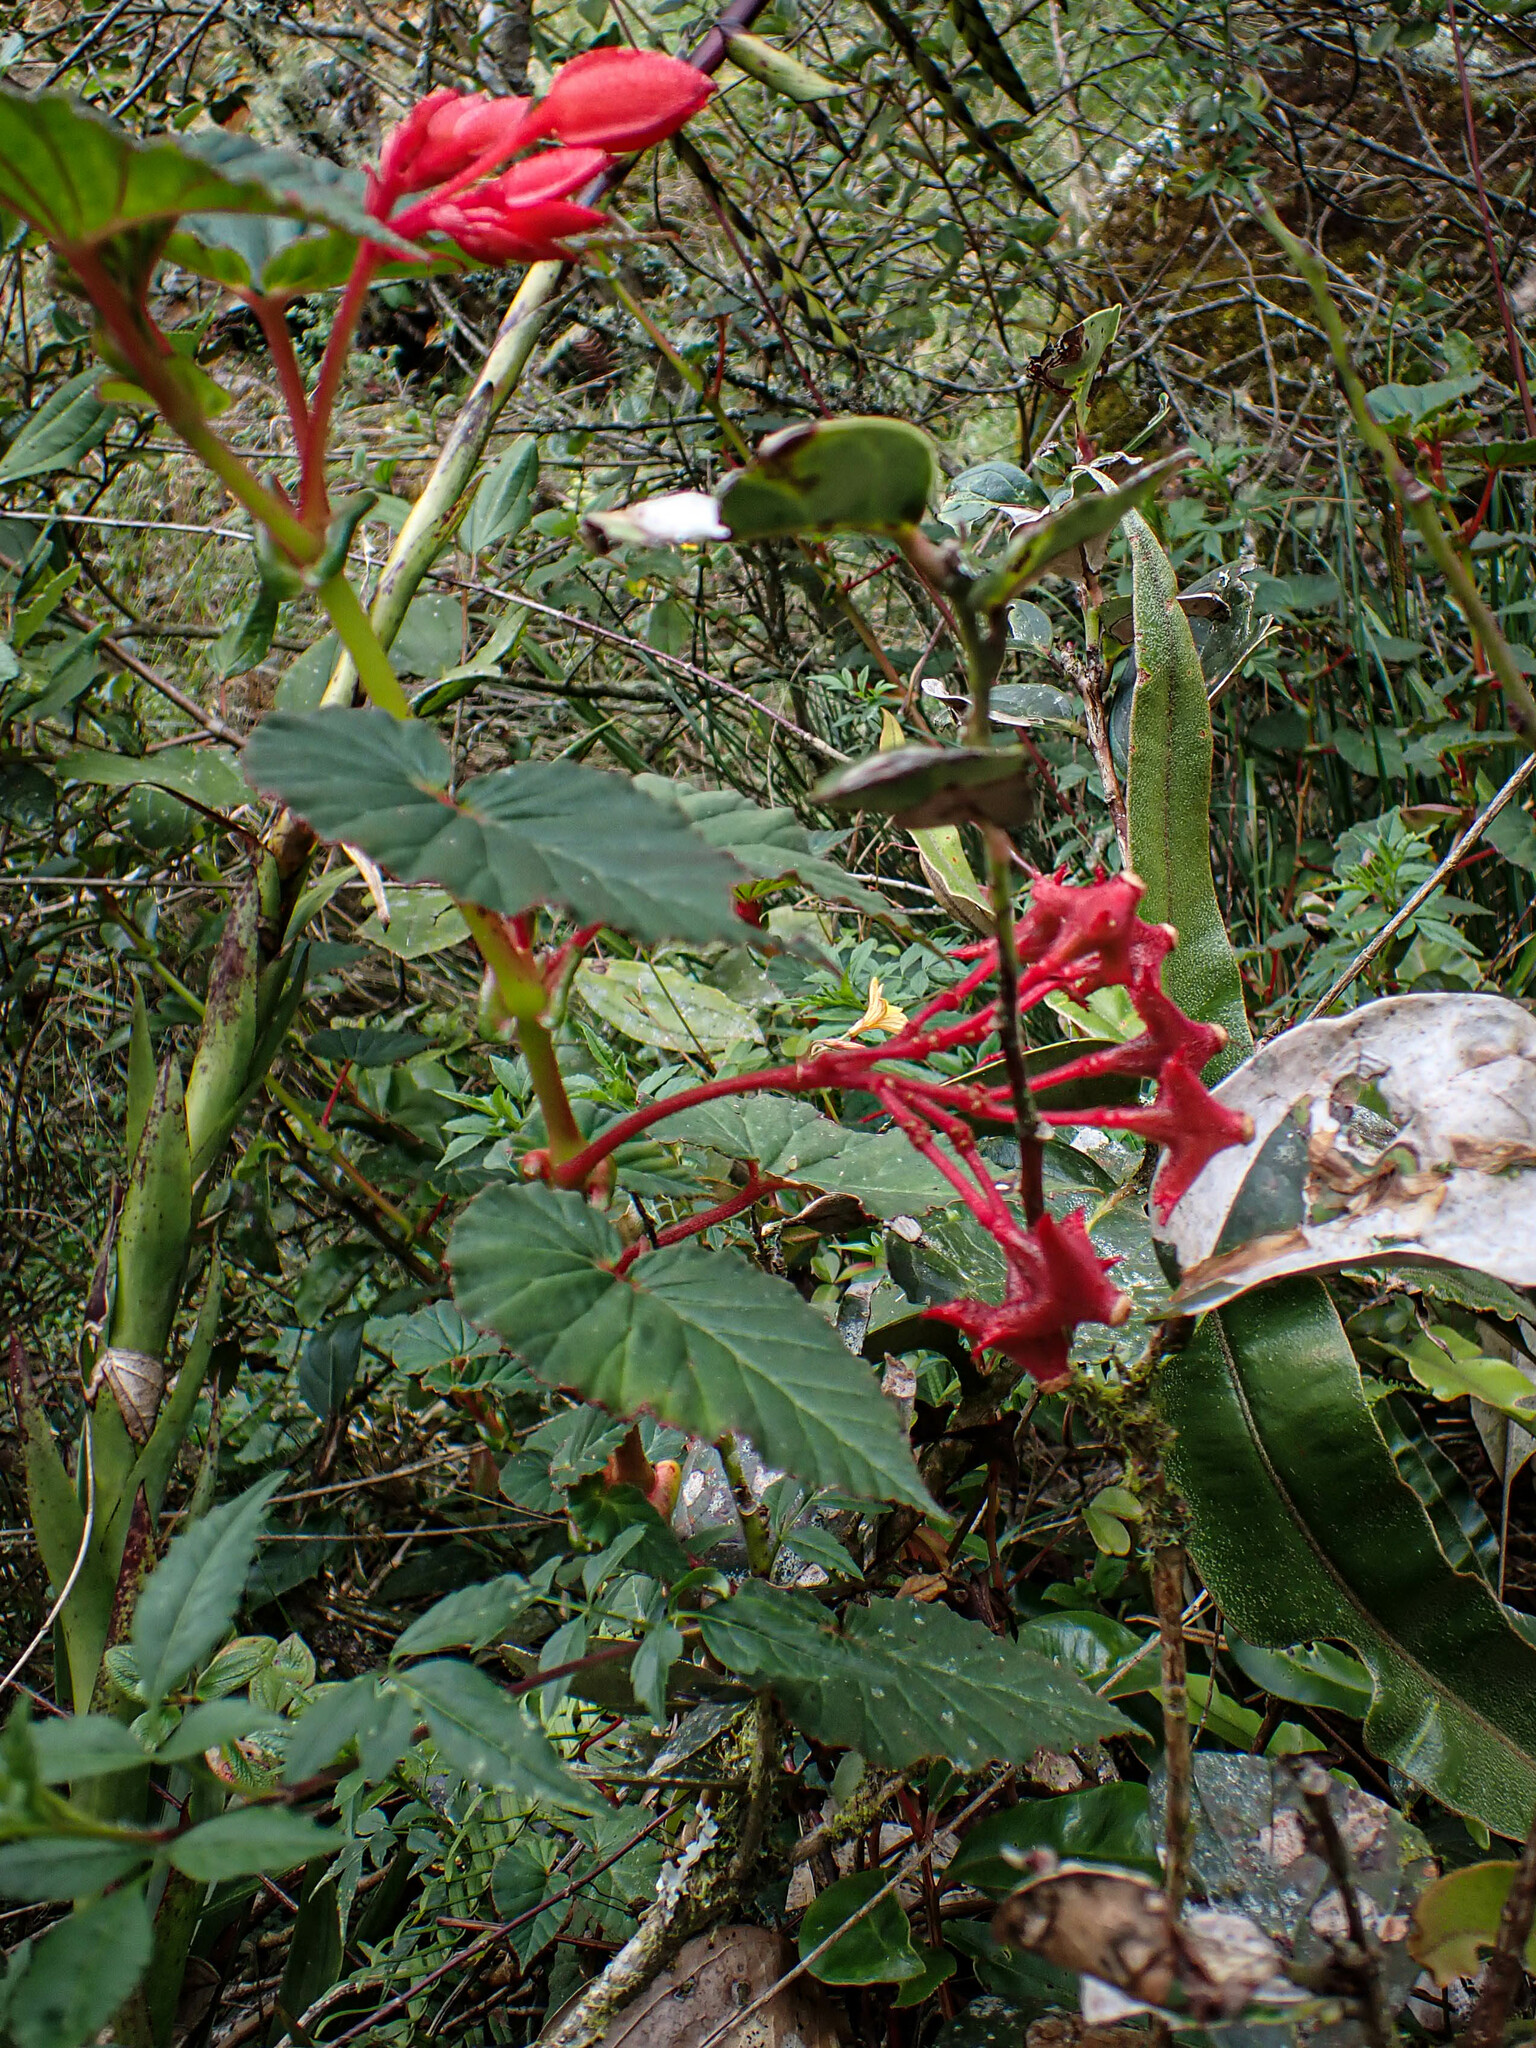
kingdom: Plantae
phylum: Tracheophyta
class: Magnoliopsida
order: Cucurbitales
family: Begoniaceae
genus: Begonia
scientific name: Begonia ferruginea
